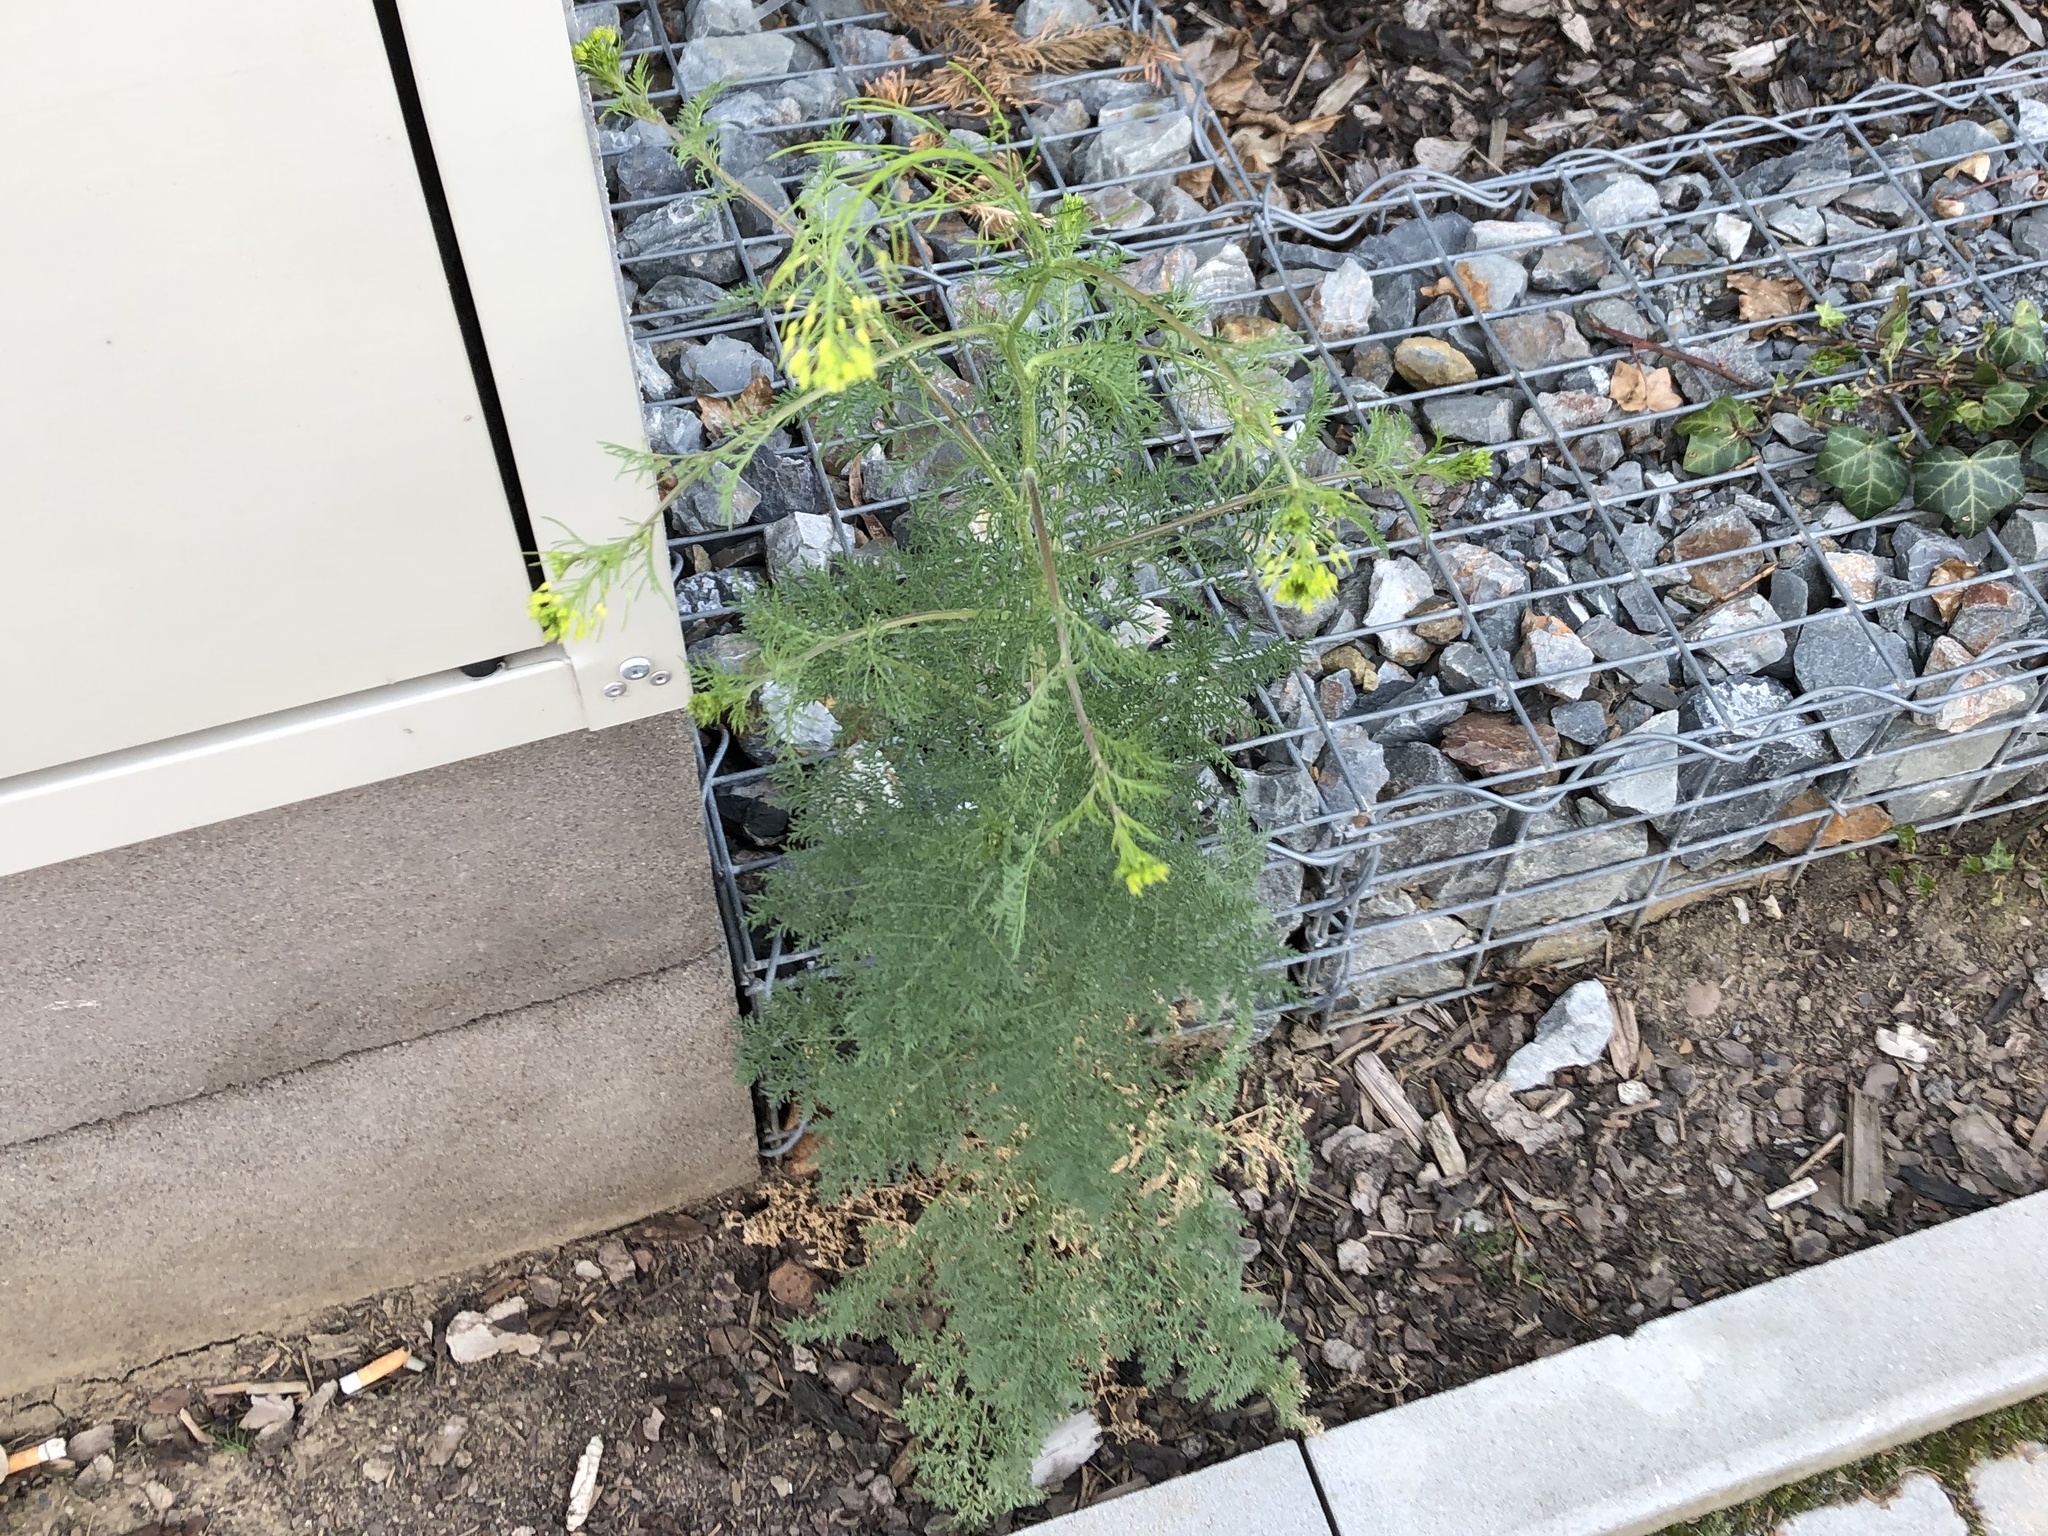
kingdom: Plantae
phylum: Tracheophyta
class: Magnoliopsida
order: Brassicales
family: Brassicaceae
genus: Descurainia
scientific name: Descurainia sophia
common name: Flixweed
